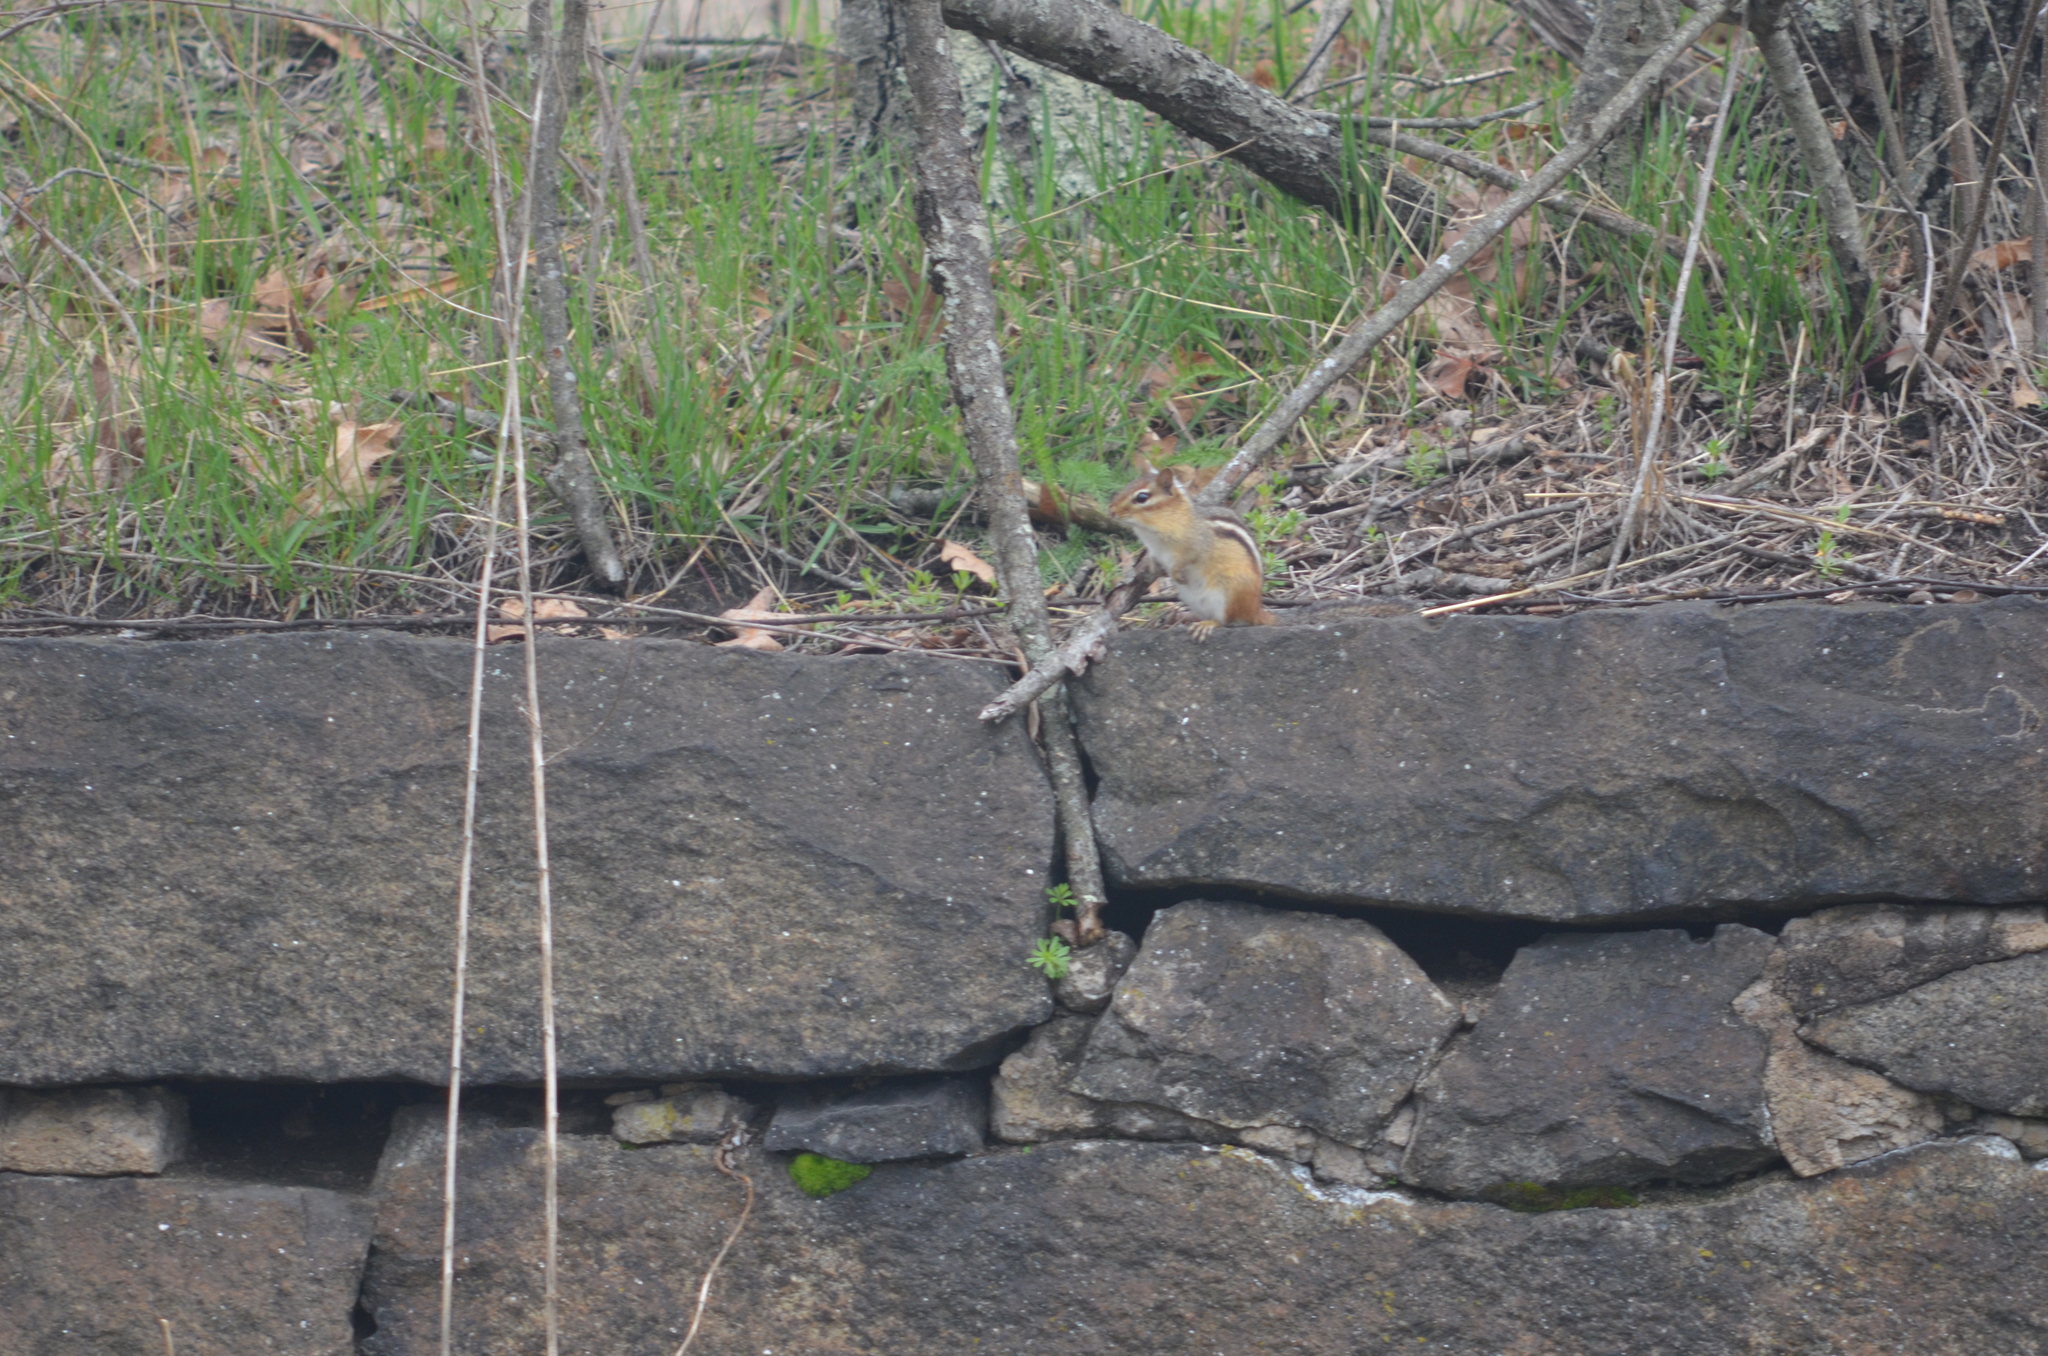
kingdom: Animalia
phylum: Chordata
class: Mammalia
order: Rodentia
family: Sciuridae
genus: Tamias
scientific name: Tamias striatus
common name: Eastern chipmunk
